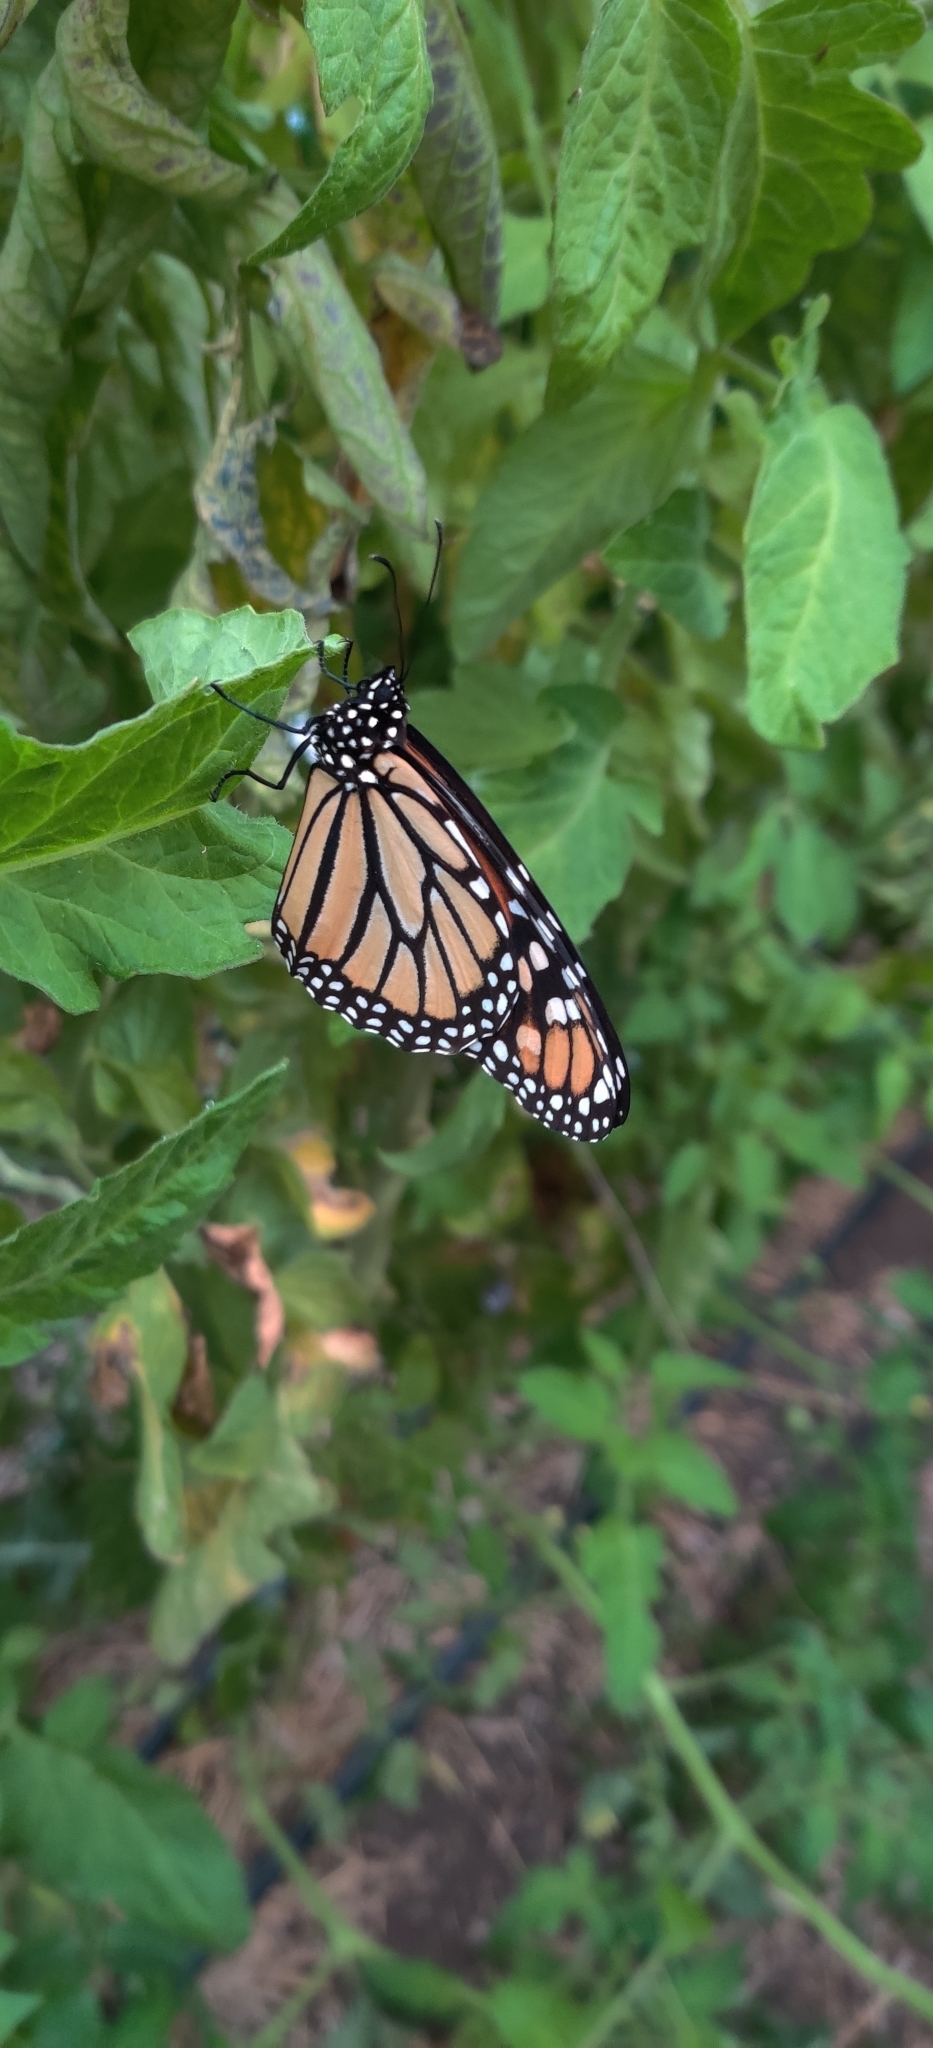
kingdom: Animalia
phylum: Arthropoda
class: Insecta
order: Lepidoptera
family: Nymphalidae
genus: Danaus
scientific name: Danaus plexippus
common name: Monarch
